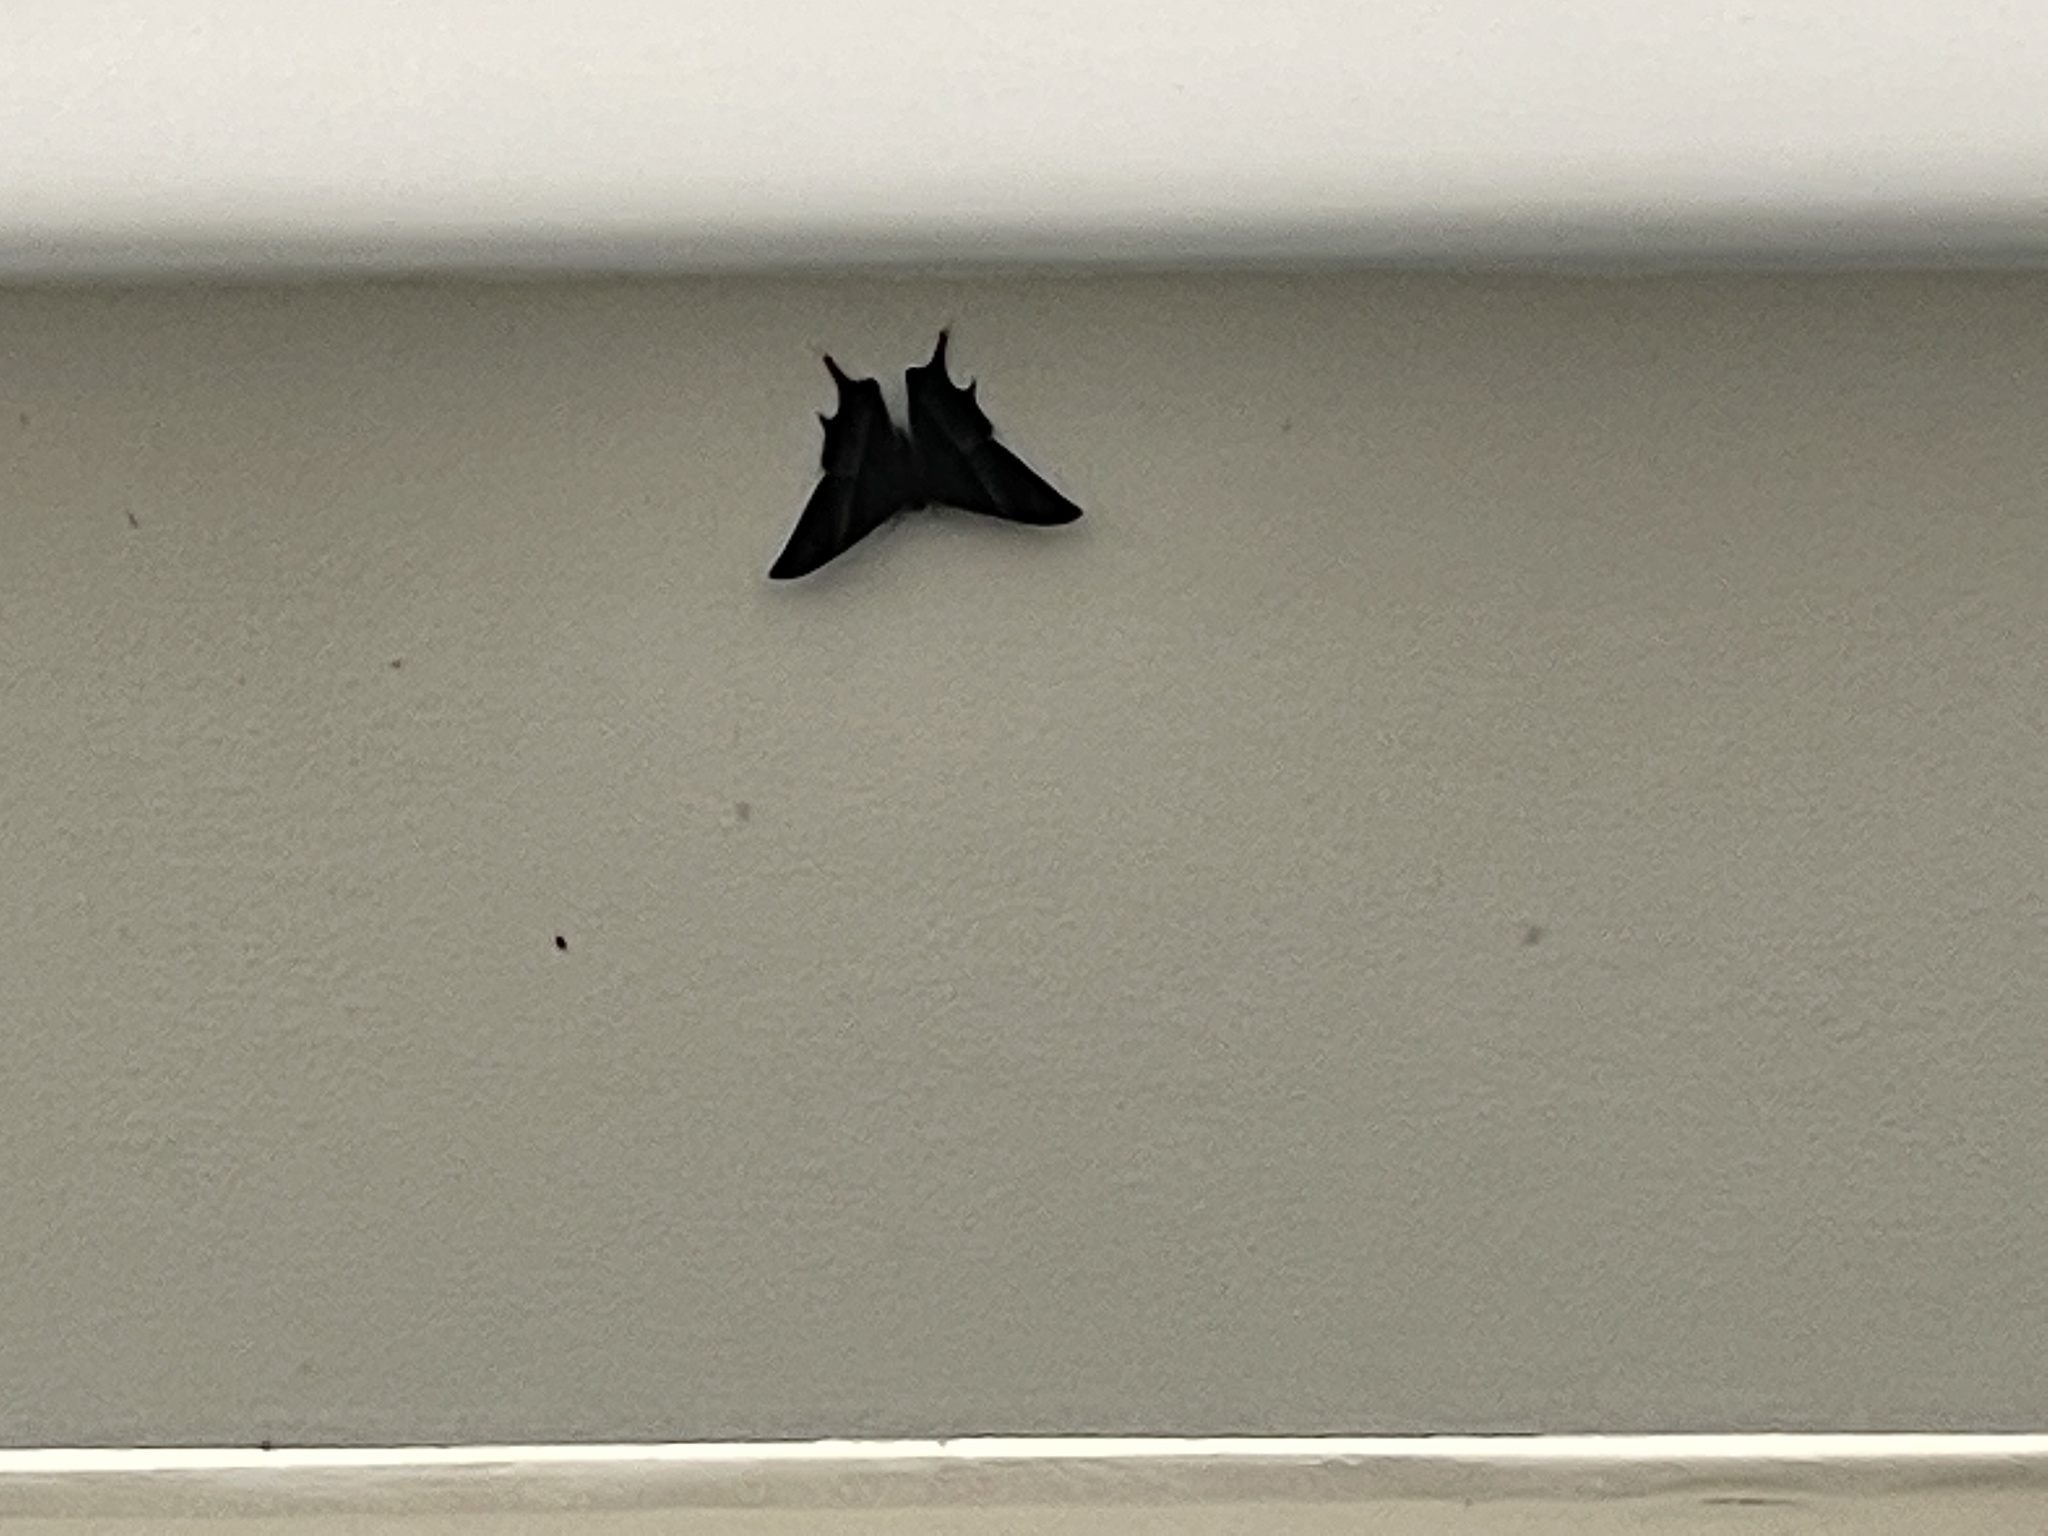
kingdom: Animalia
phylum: Arthropoda
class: Insecta
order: Lepidoptera
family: Uraniidae
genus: Lyssa
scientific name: Lyssa zampa
